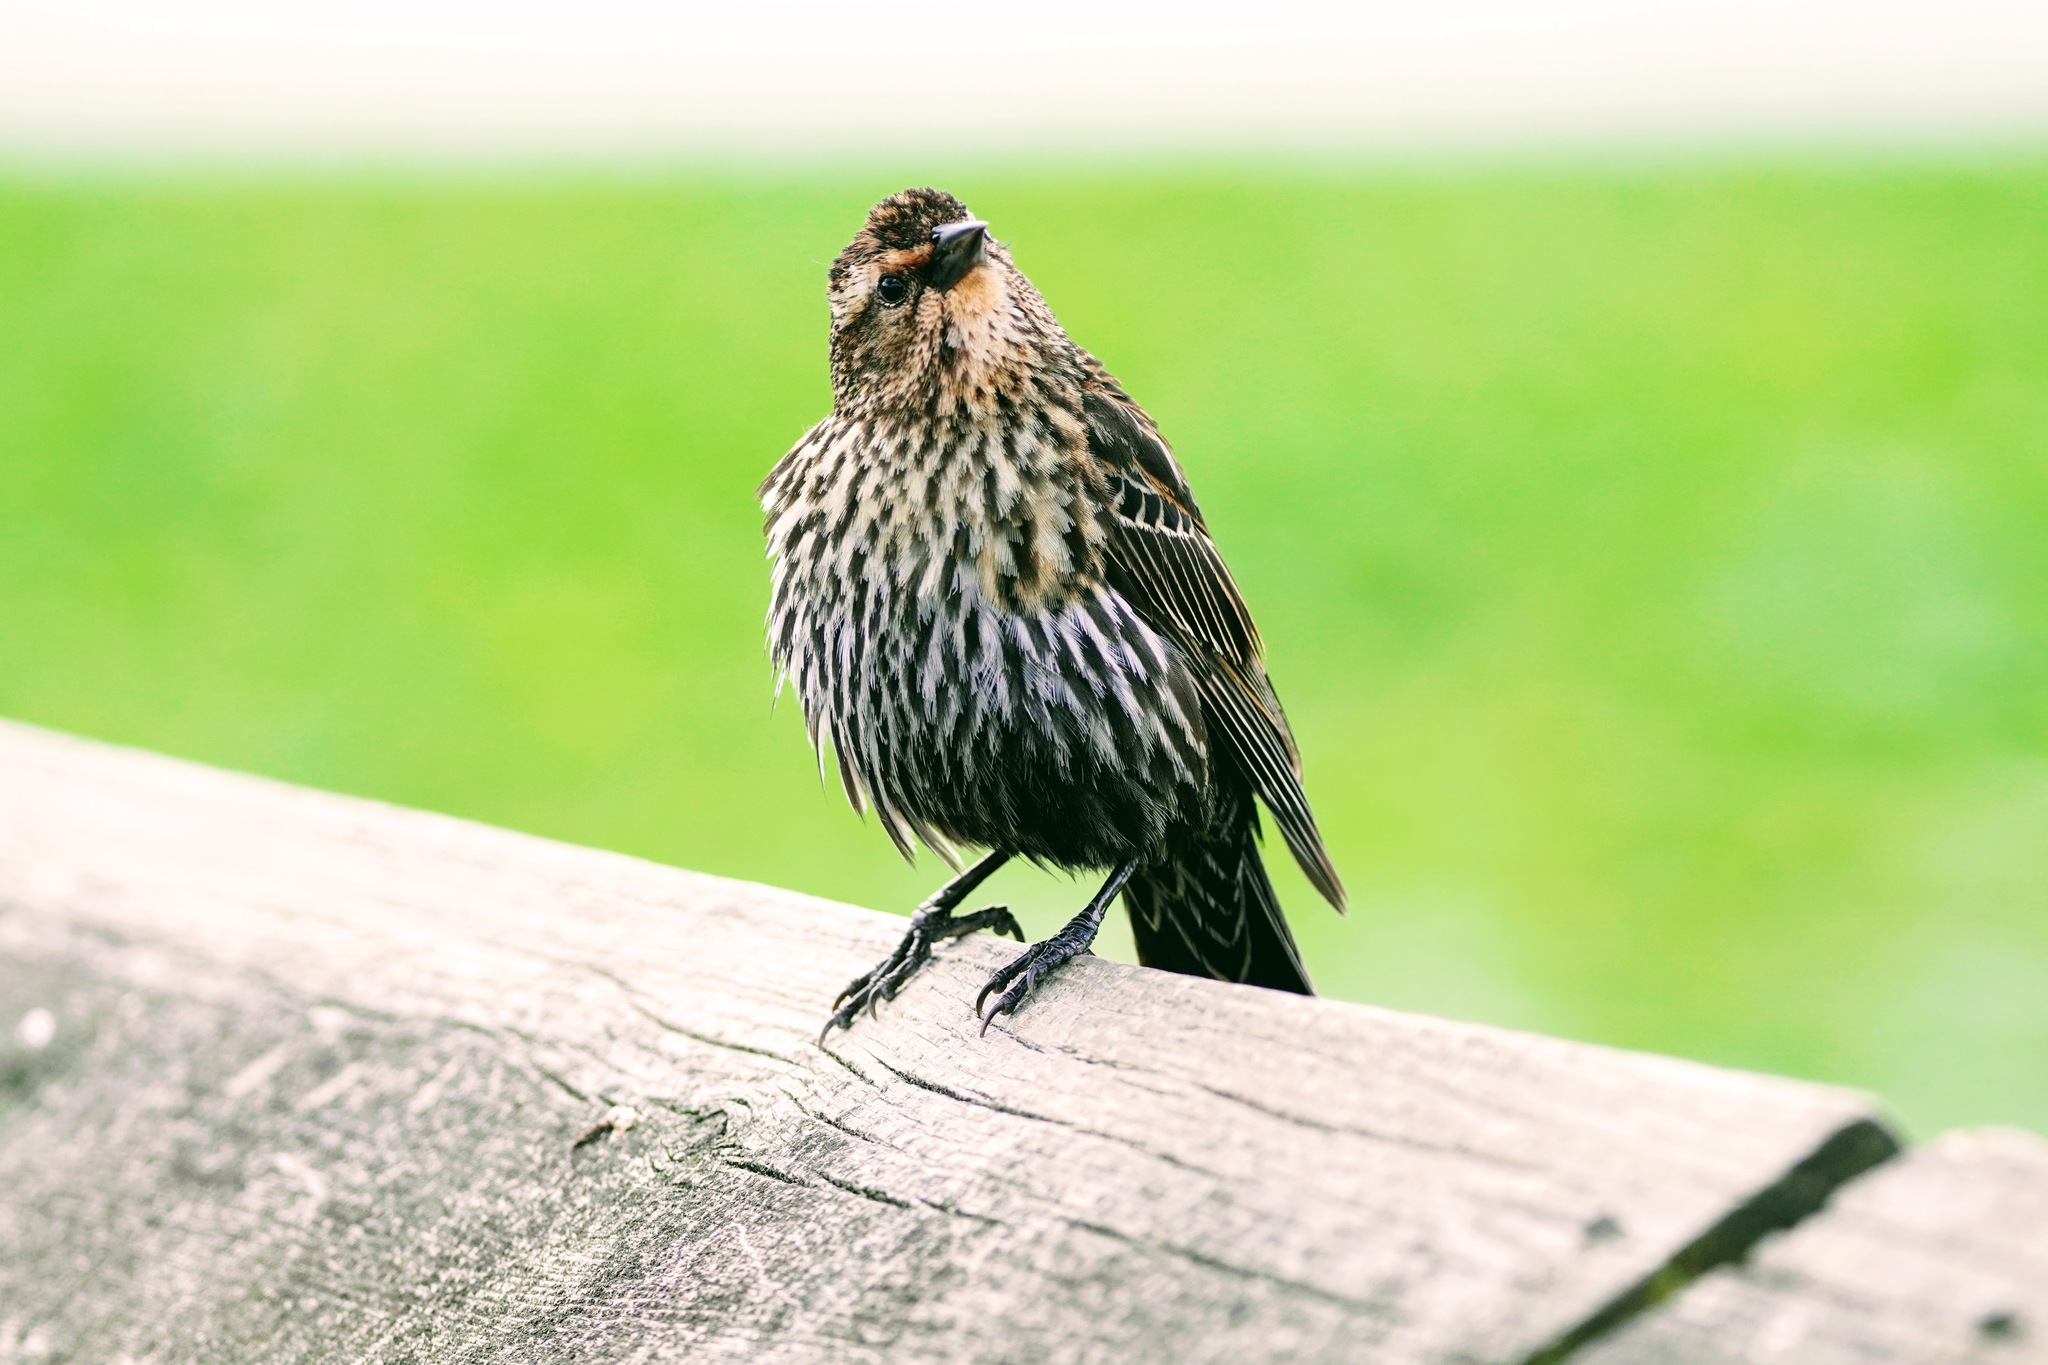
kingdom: Animalia
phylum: Chordata
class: Aves
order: Passeriformes
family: Icteridae
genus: Agelaius
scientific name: Agelaius phoeniceus
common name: Red-winged blackbird
